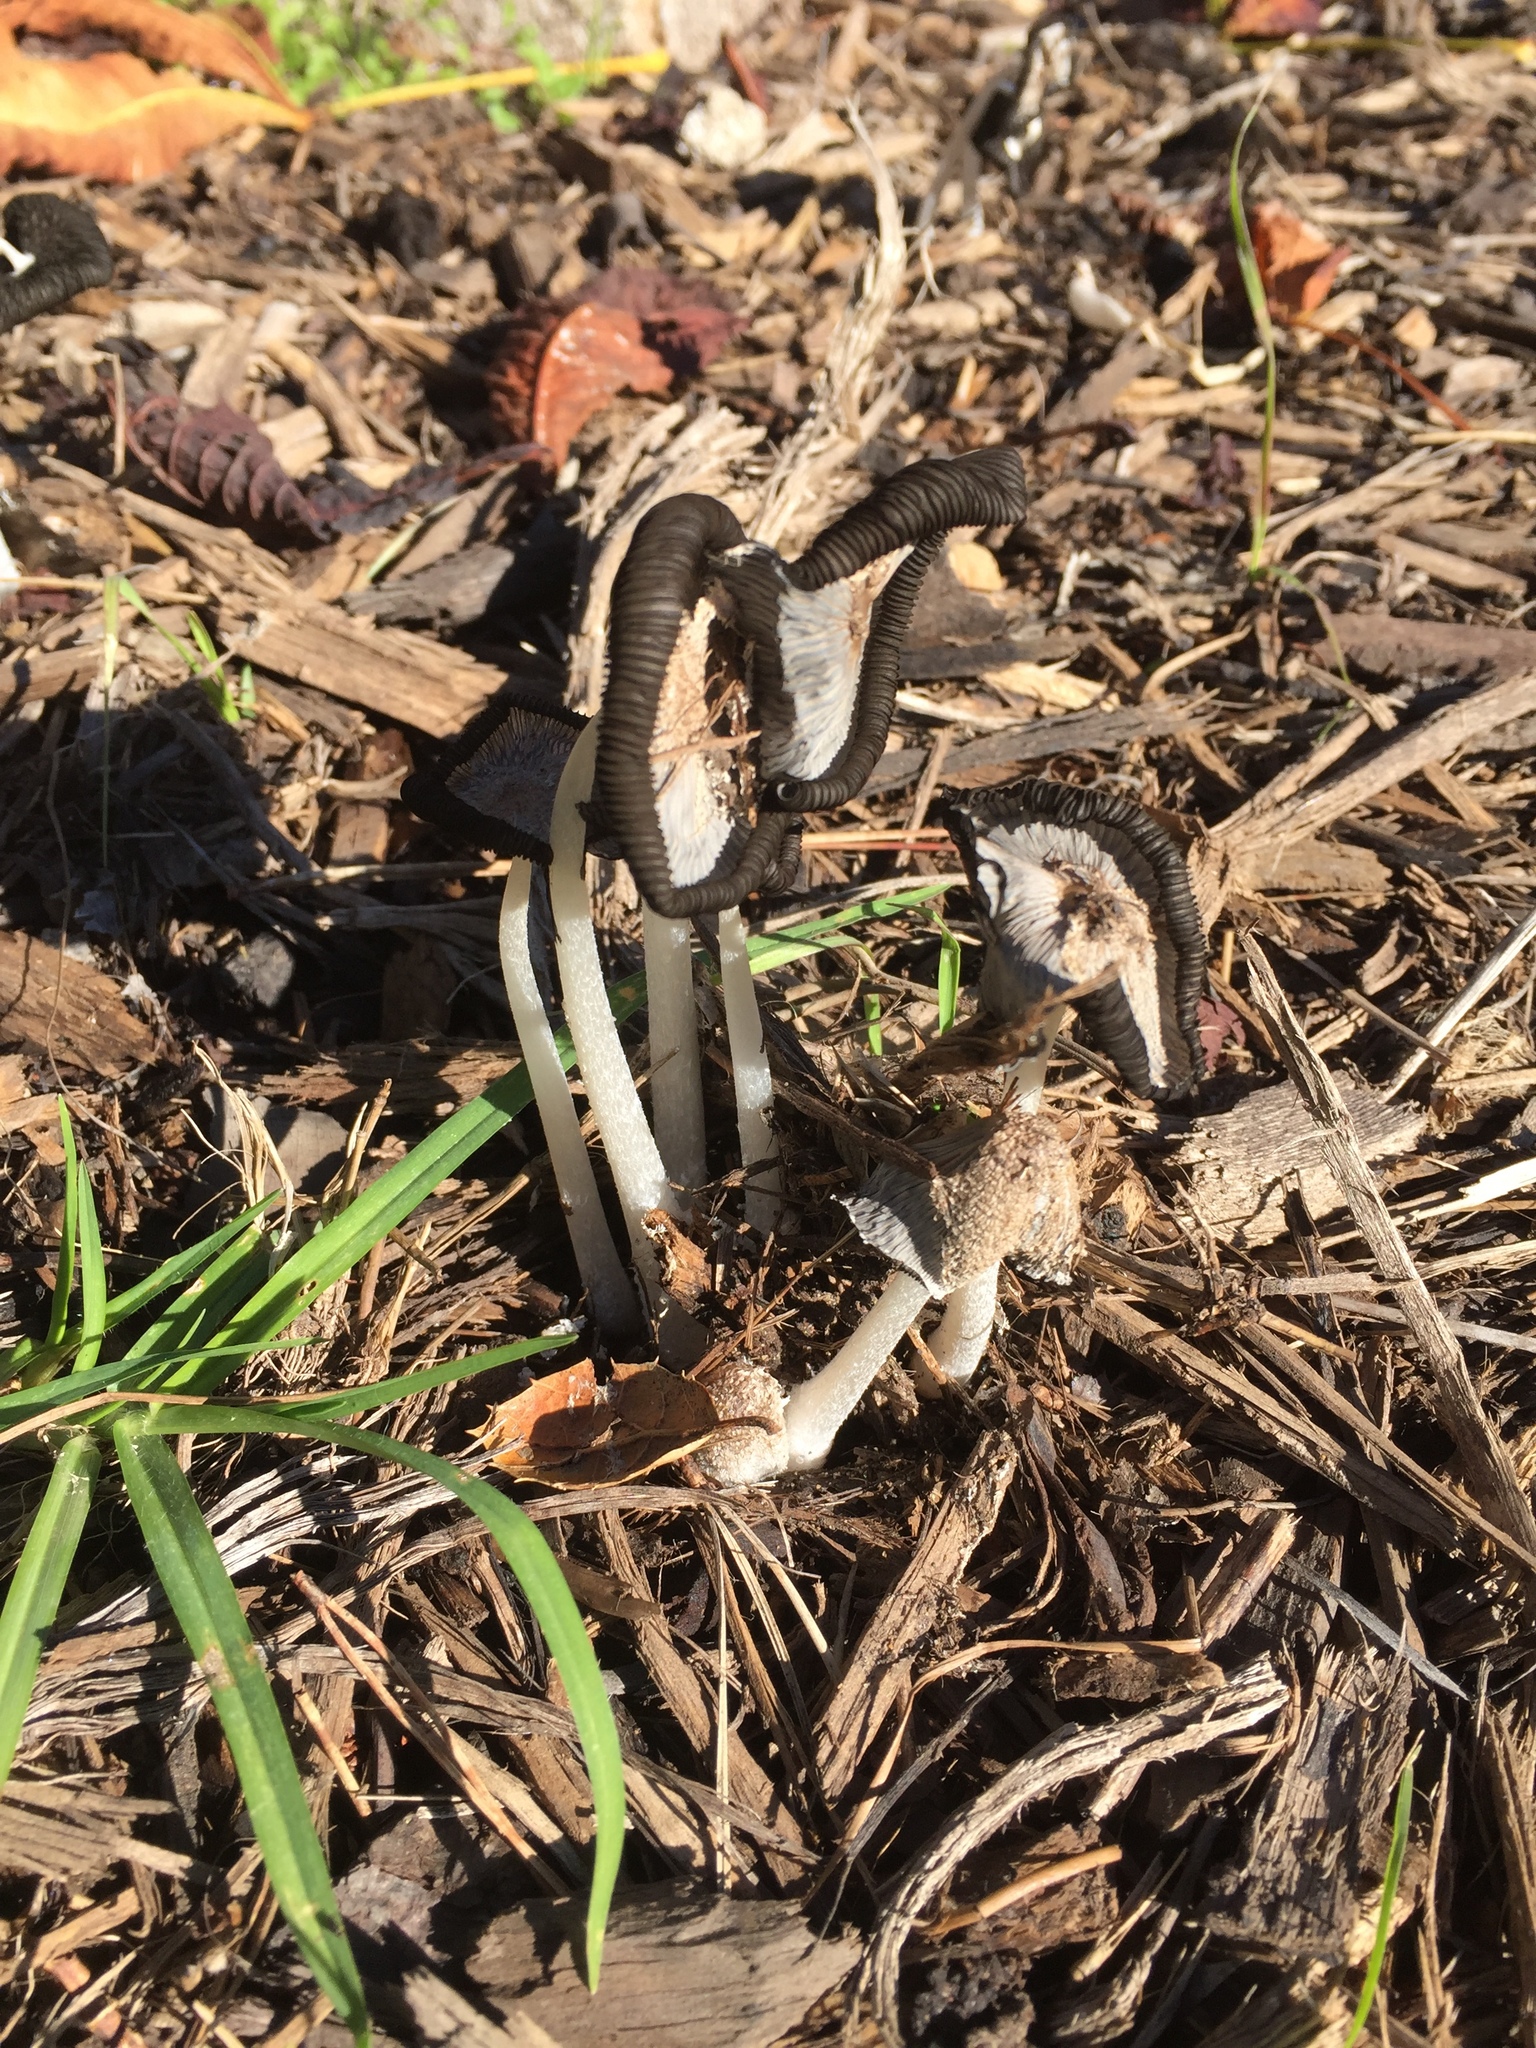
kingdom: Fungi
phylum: Basidiomycota
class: Agaricomycetes
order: Agaricales
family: Psathyrellaceae
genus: Coprinopsis
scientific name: Coprinopsis lagopus
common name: Hare'sfoot inkcap
